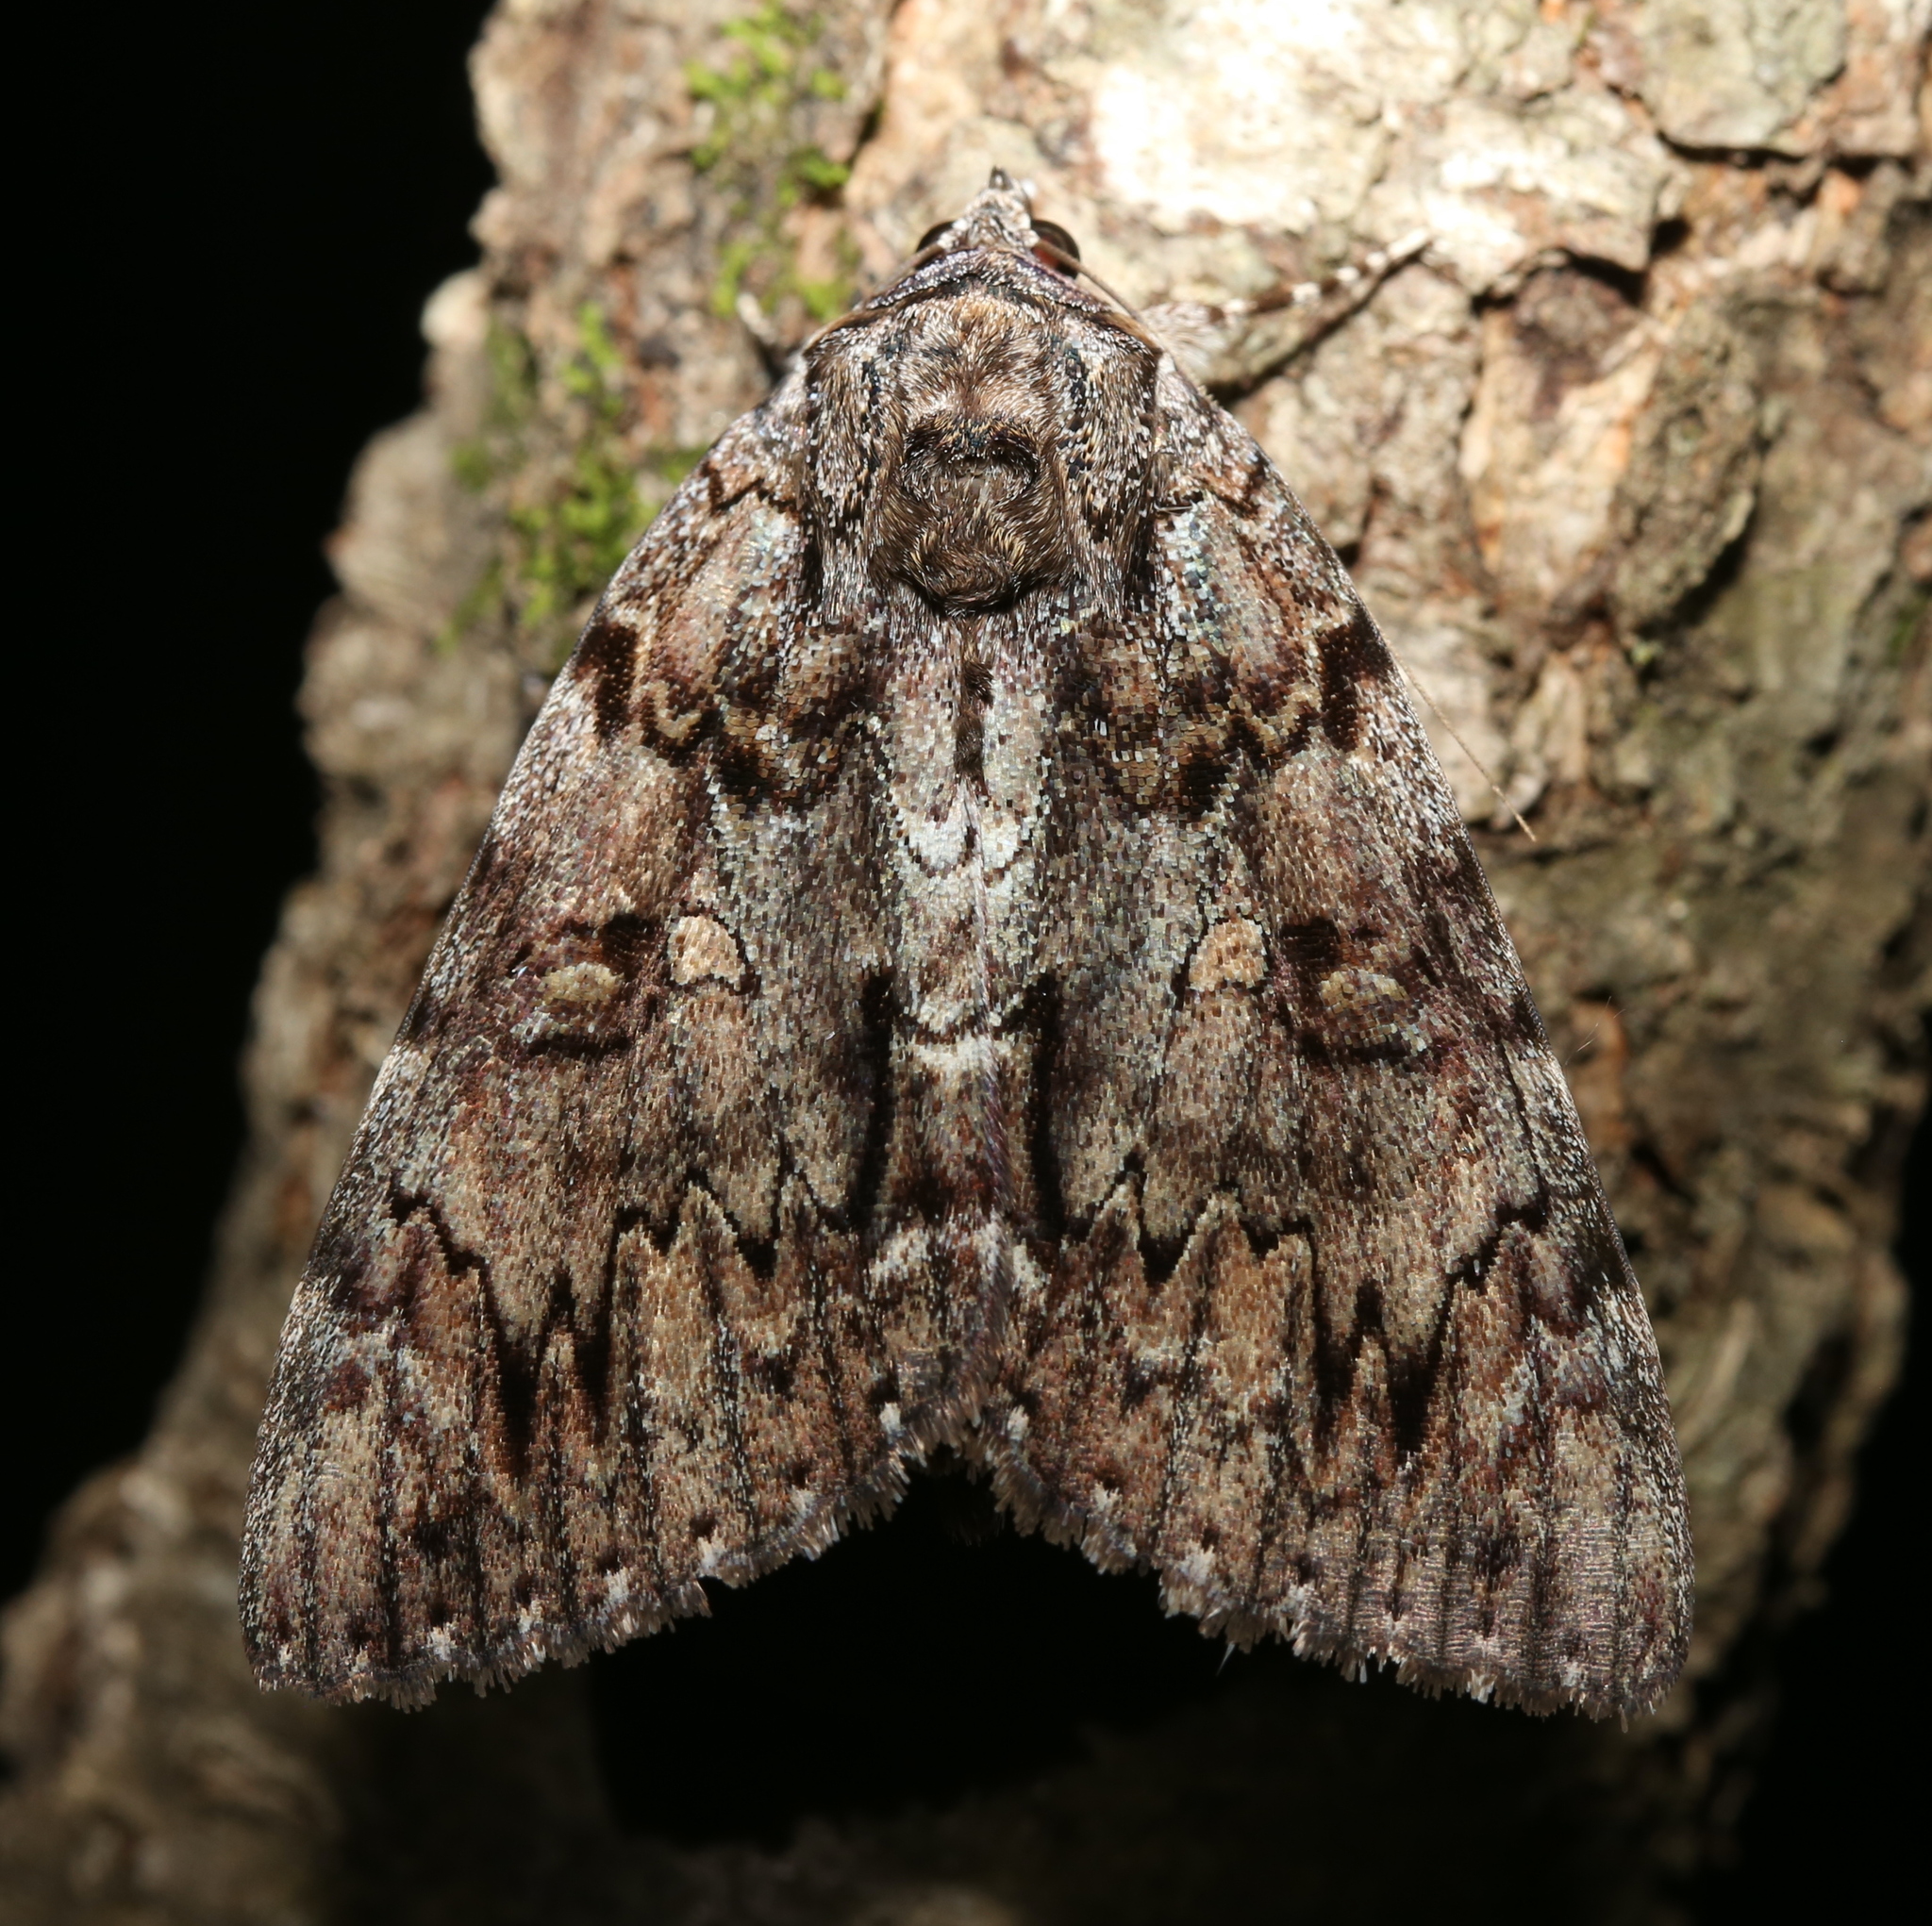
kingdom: Animalia
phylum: Arthropoda
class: Insecta
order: Lepidoptera
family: Erebidae
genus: Catocala
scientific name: Catocala lacrymosa
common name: Tearful underwing
